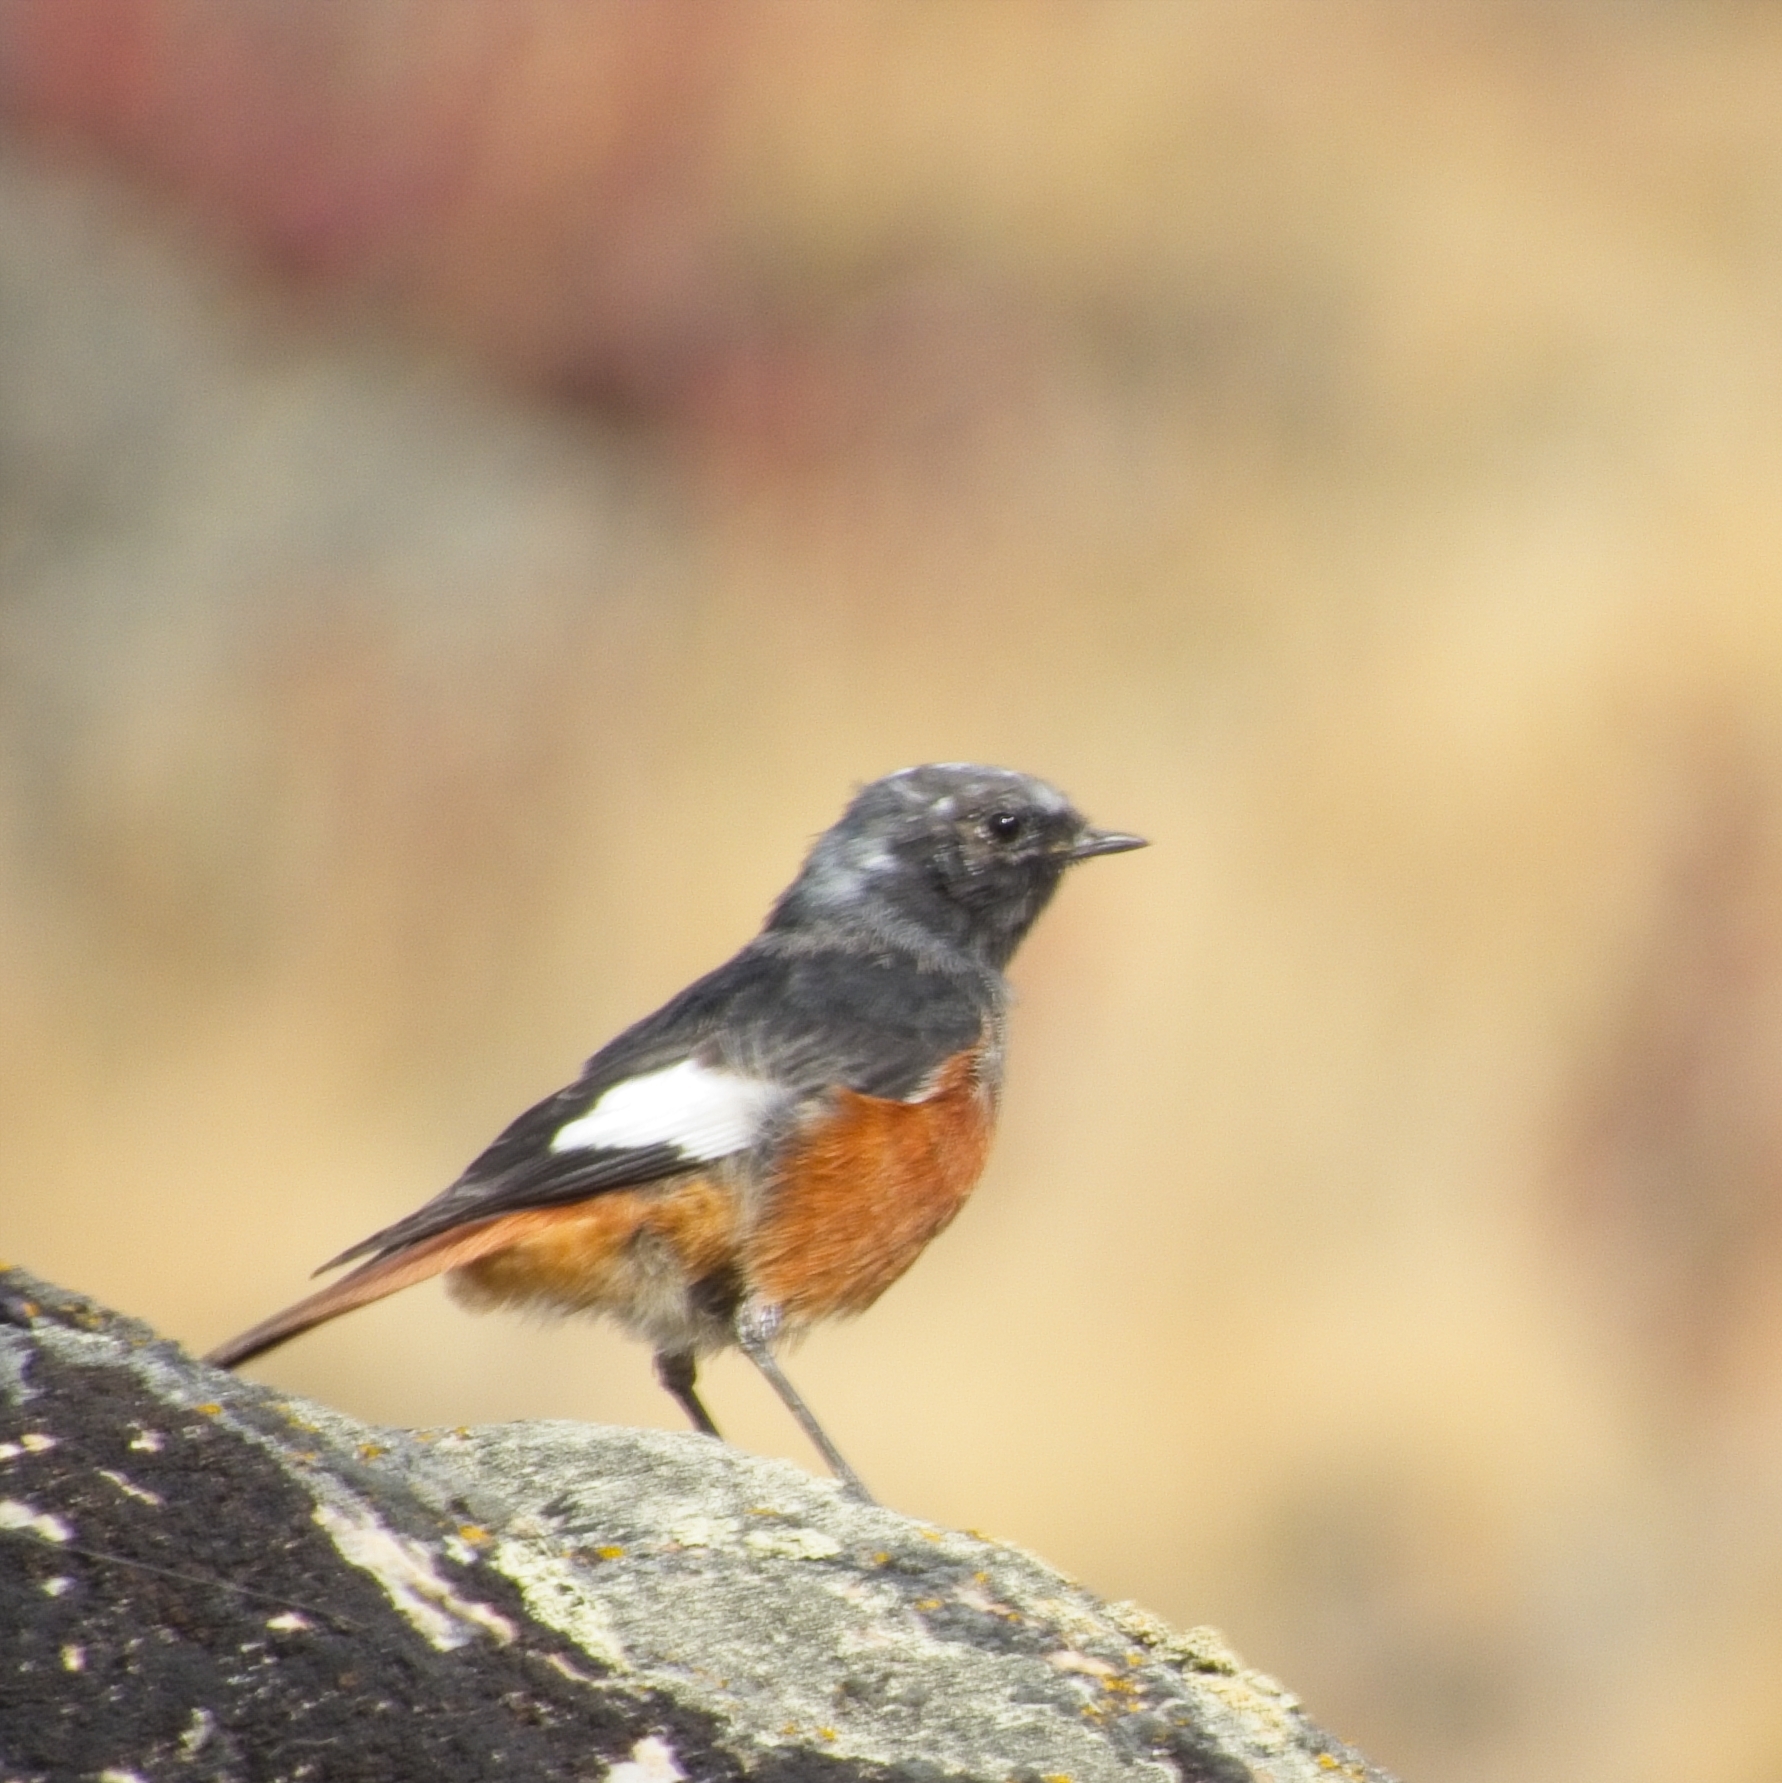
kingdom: Animalia
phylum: Chordata
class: Aves
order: Passeriformes
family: Muscicapidae
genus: Phoenicurus
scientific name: Phoenicurus erythrogastrus
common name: Güldenstädt's redstart
